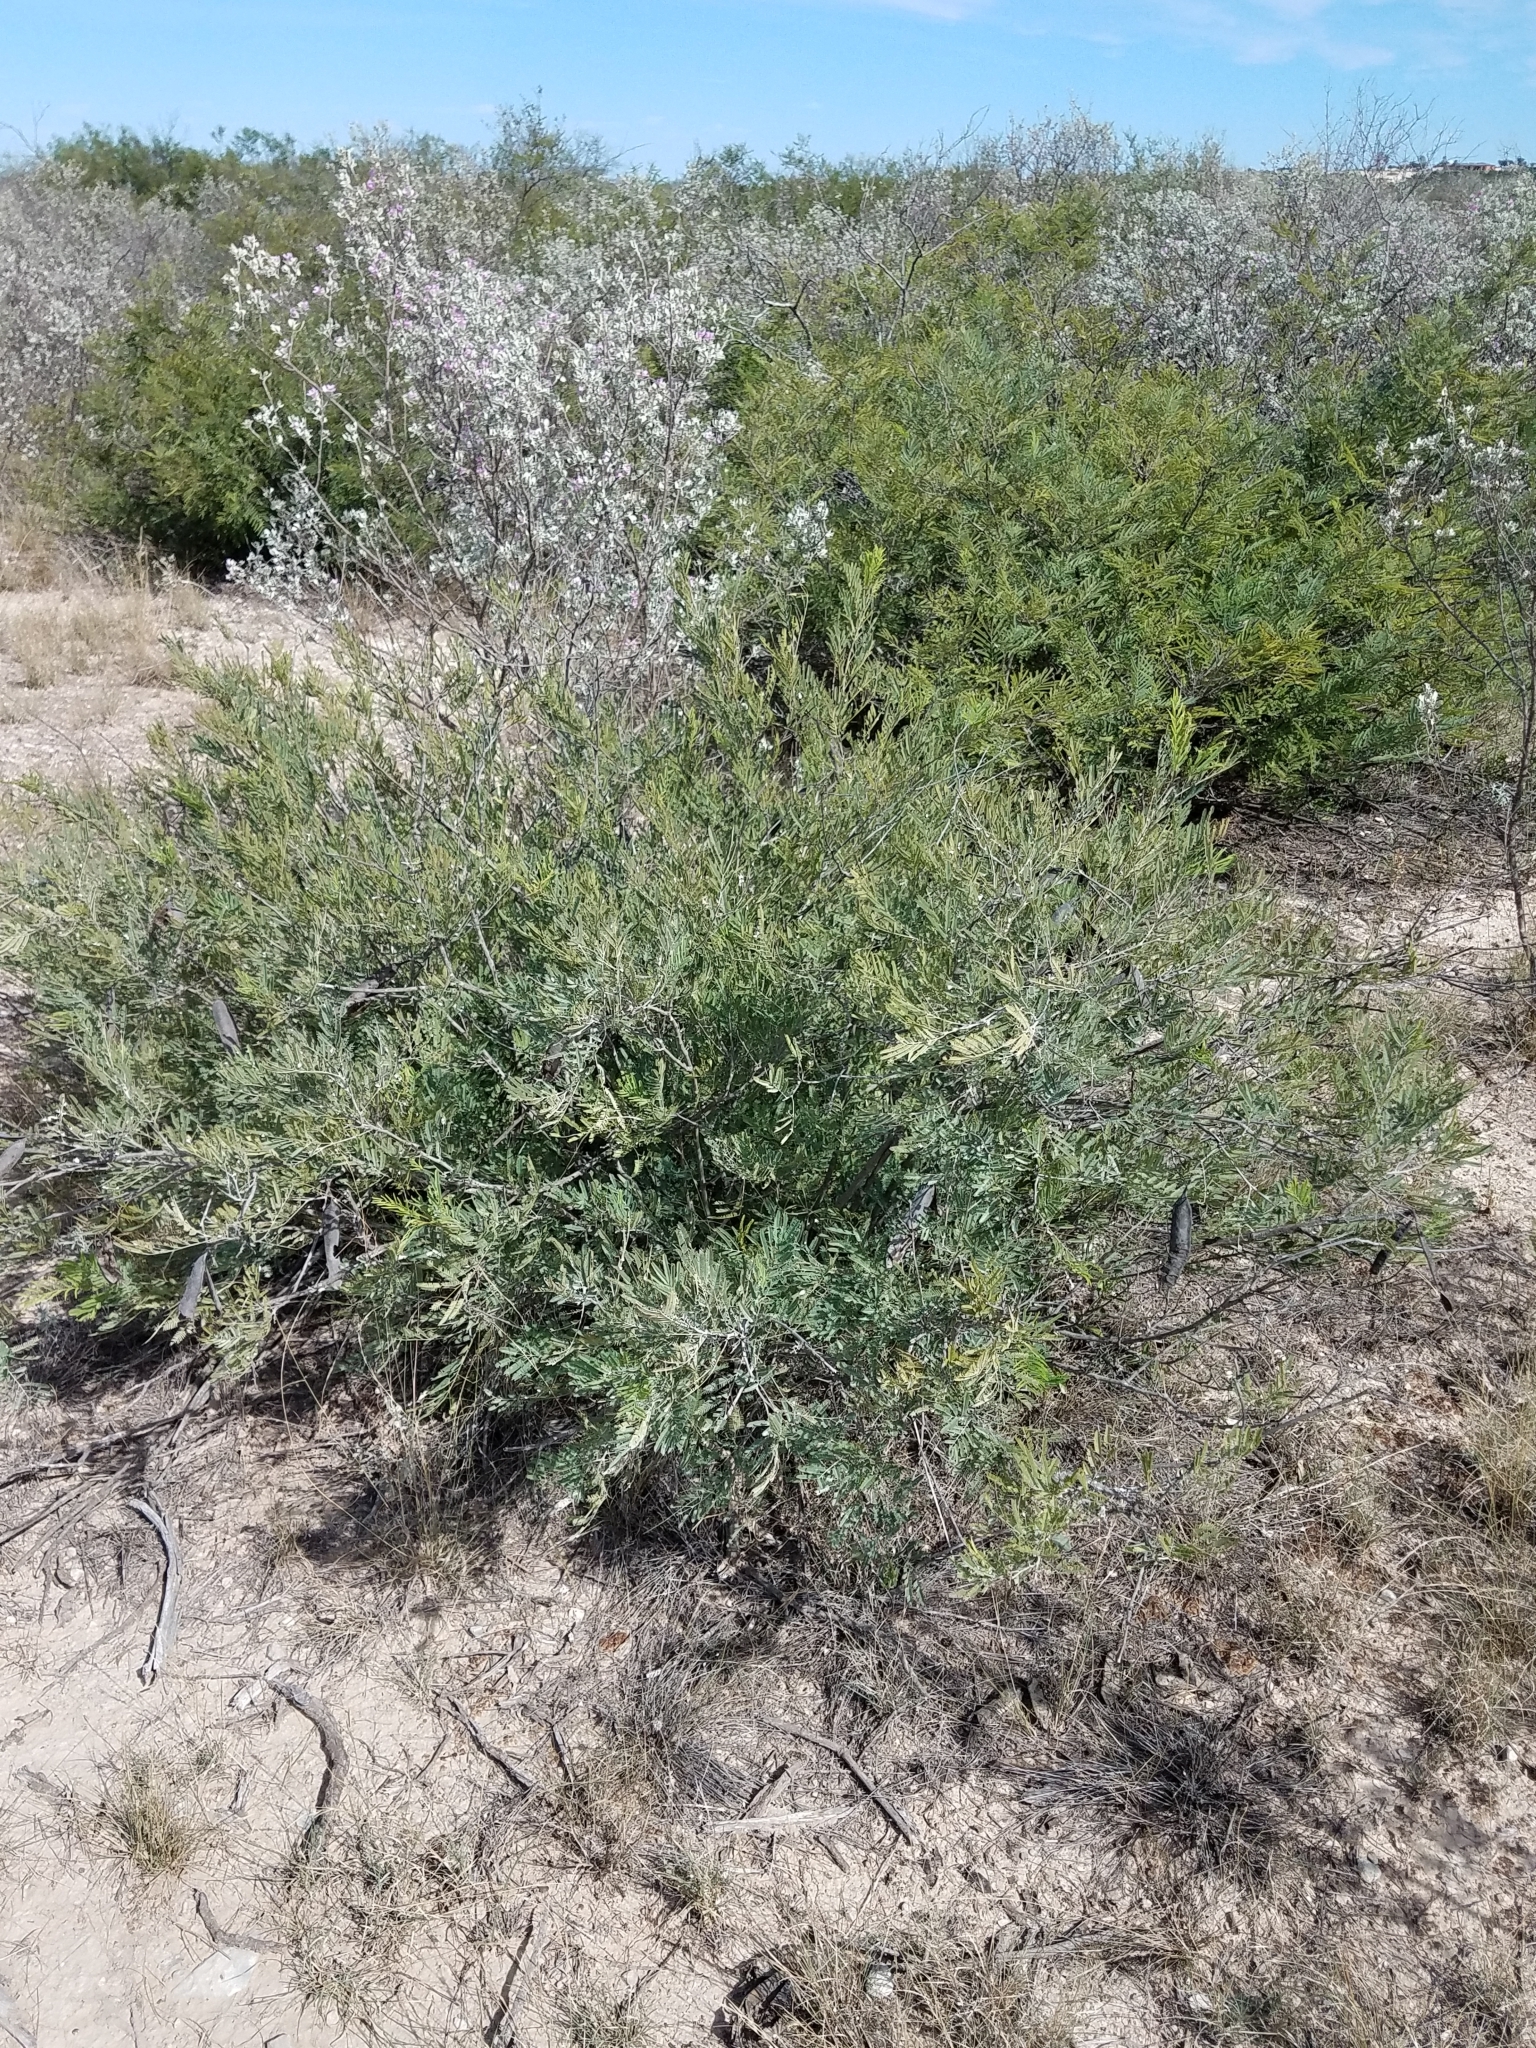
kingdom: Plantae
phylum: Tracheophyta
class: Magnoliopsida
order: Fabales
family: Fabaceae
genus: Senegalia
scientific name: Senegalia berlandieri
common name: Berlandier acacia
